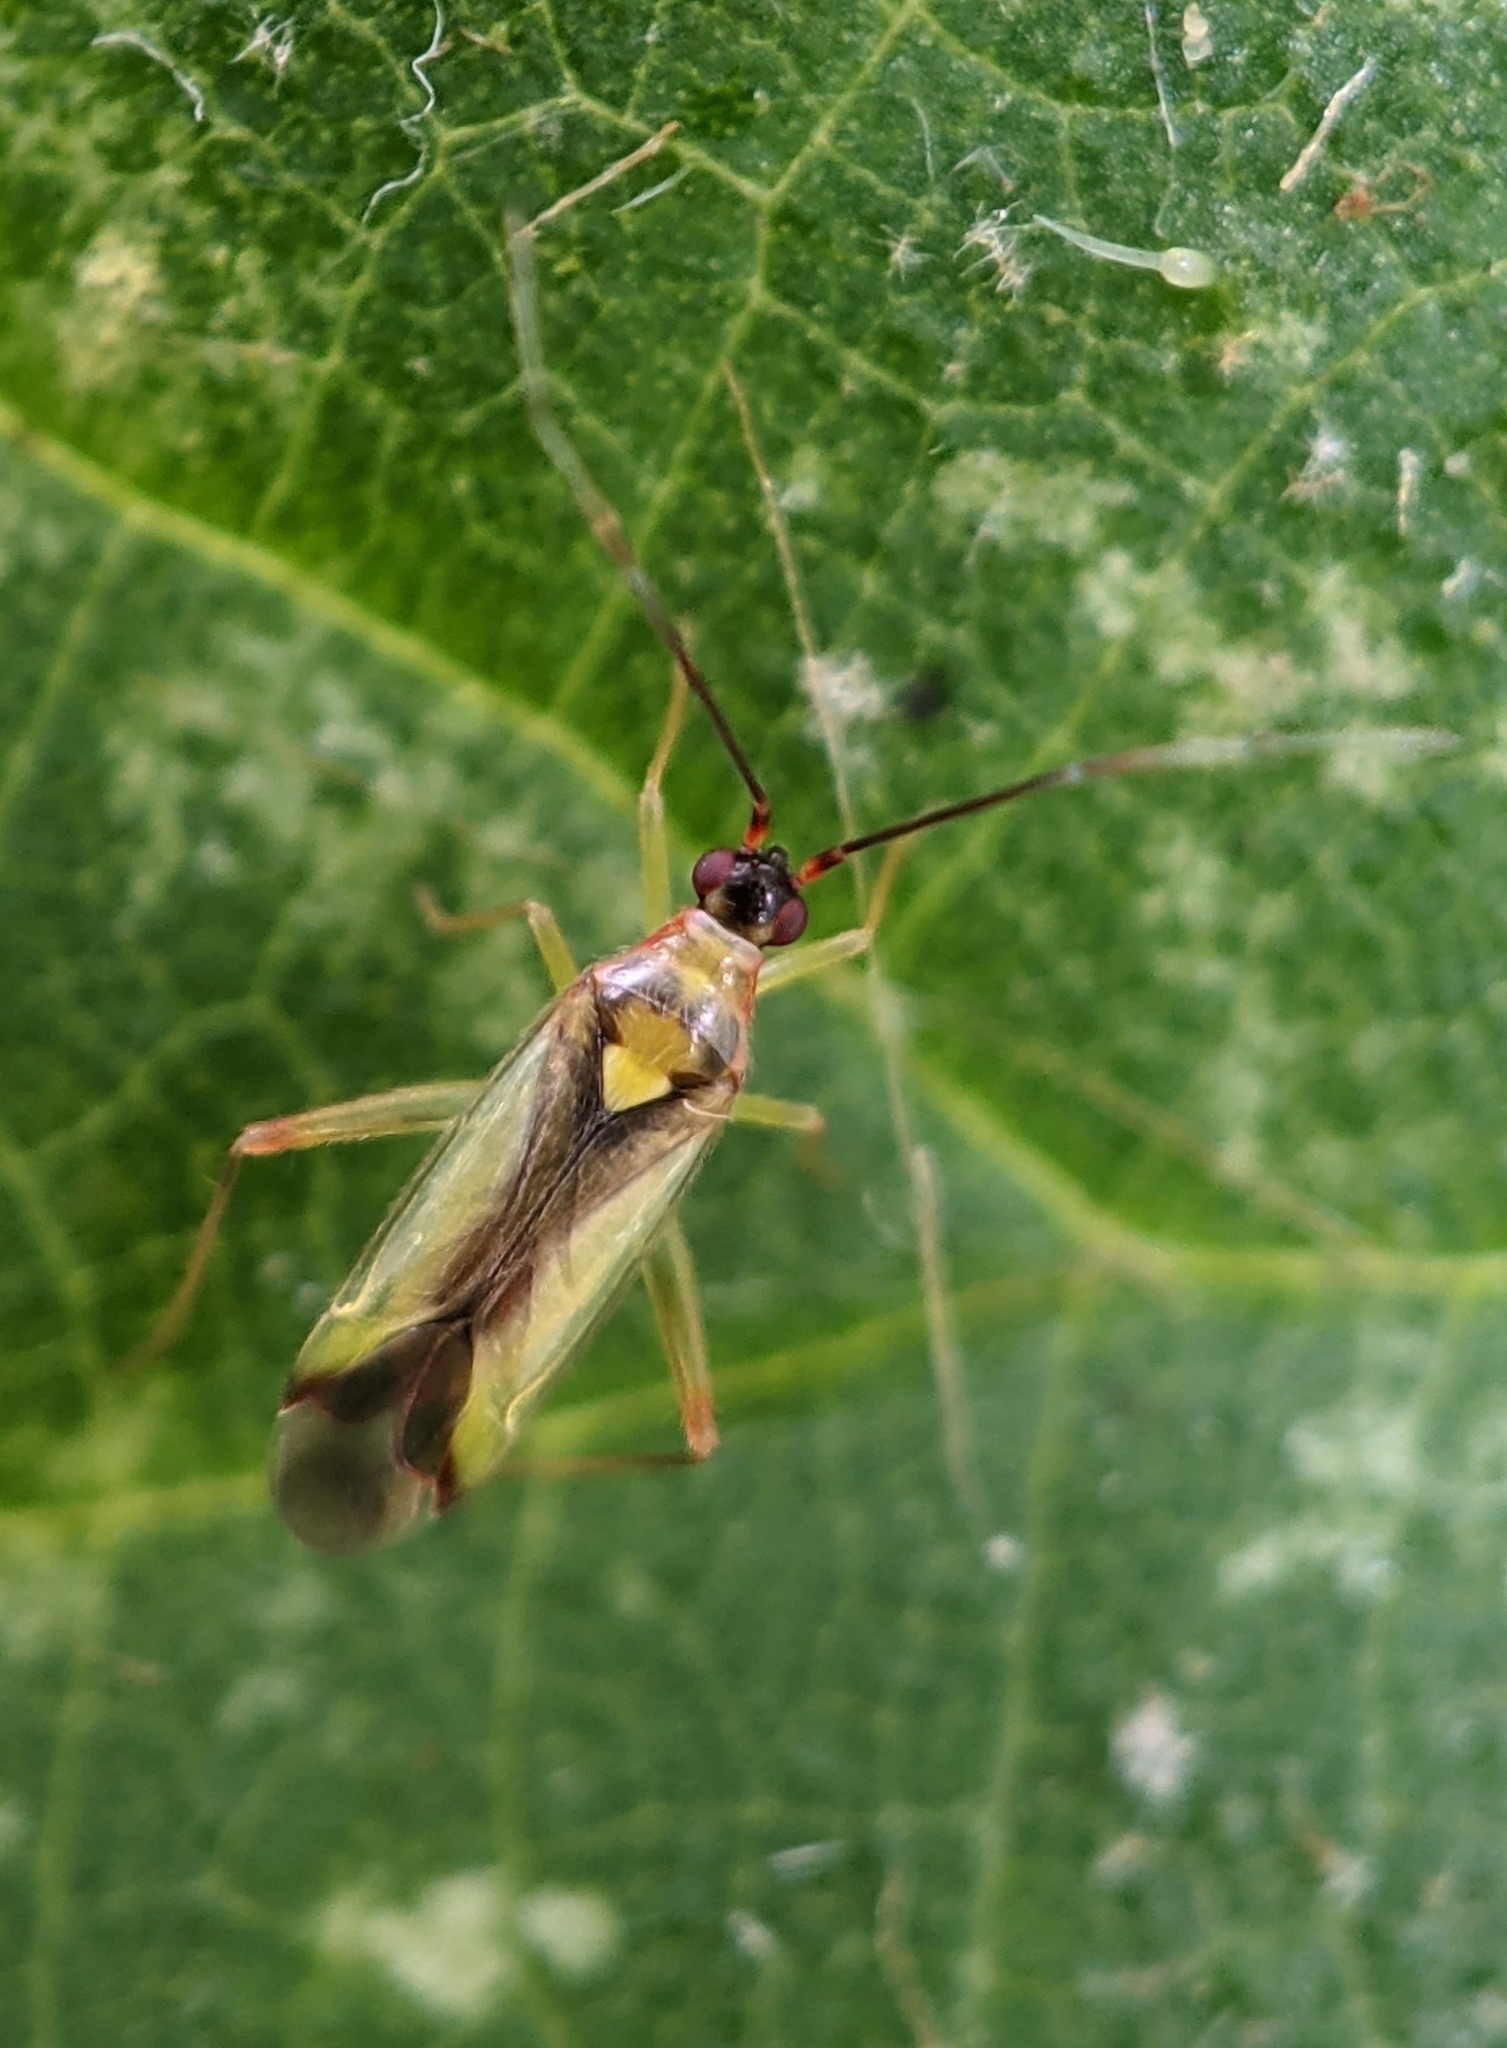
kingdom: Animalia
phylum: Arthropoda
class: Insecta
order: Hemiptera
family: Miridae
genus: Campyloneura
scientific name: Campyloneura virgula
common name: Predatory bug
